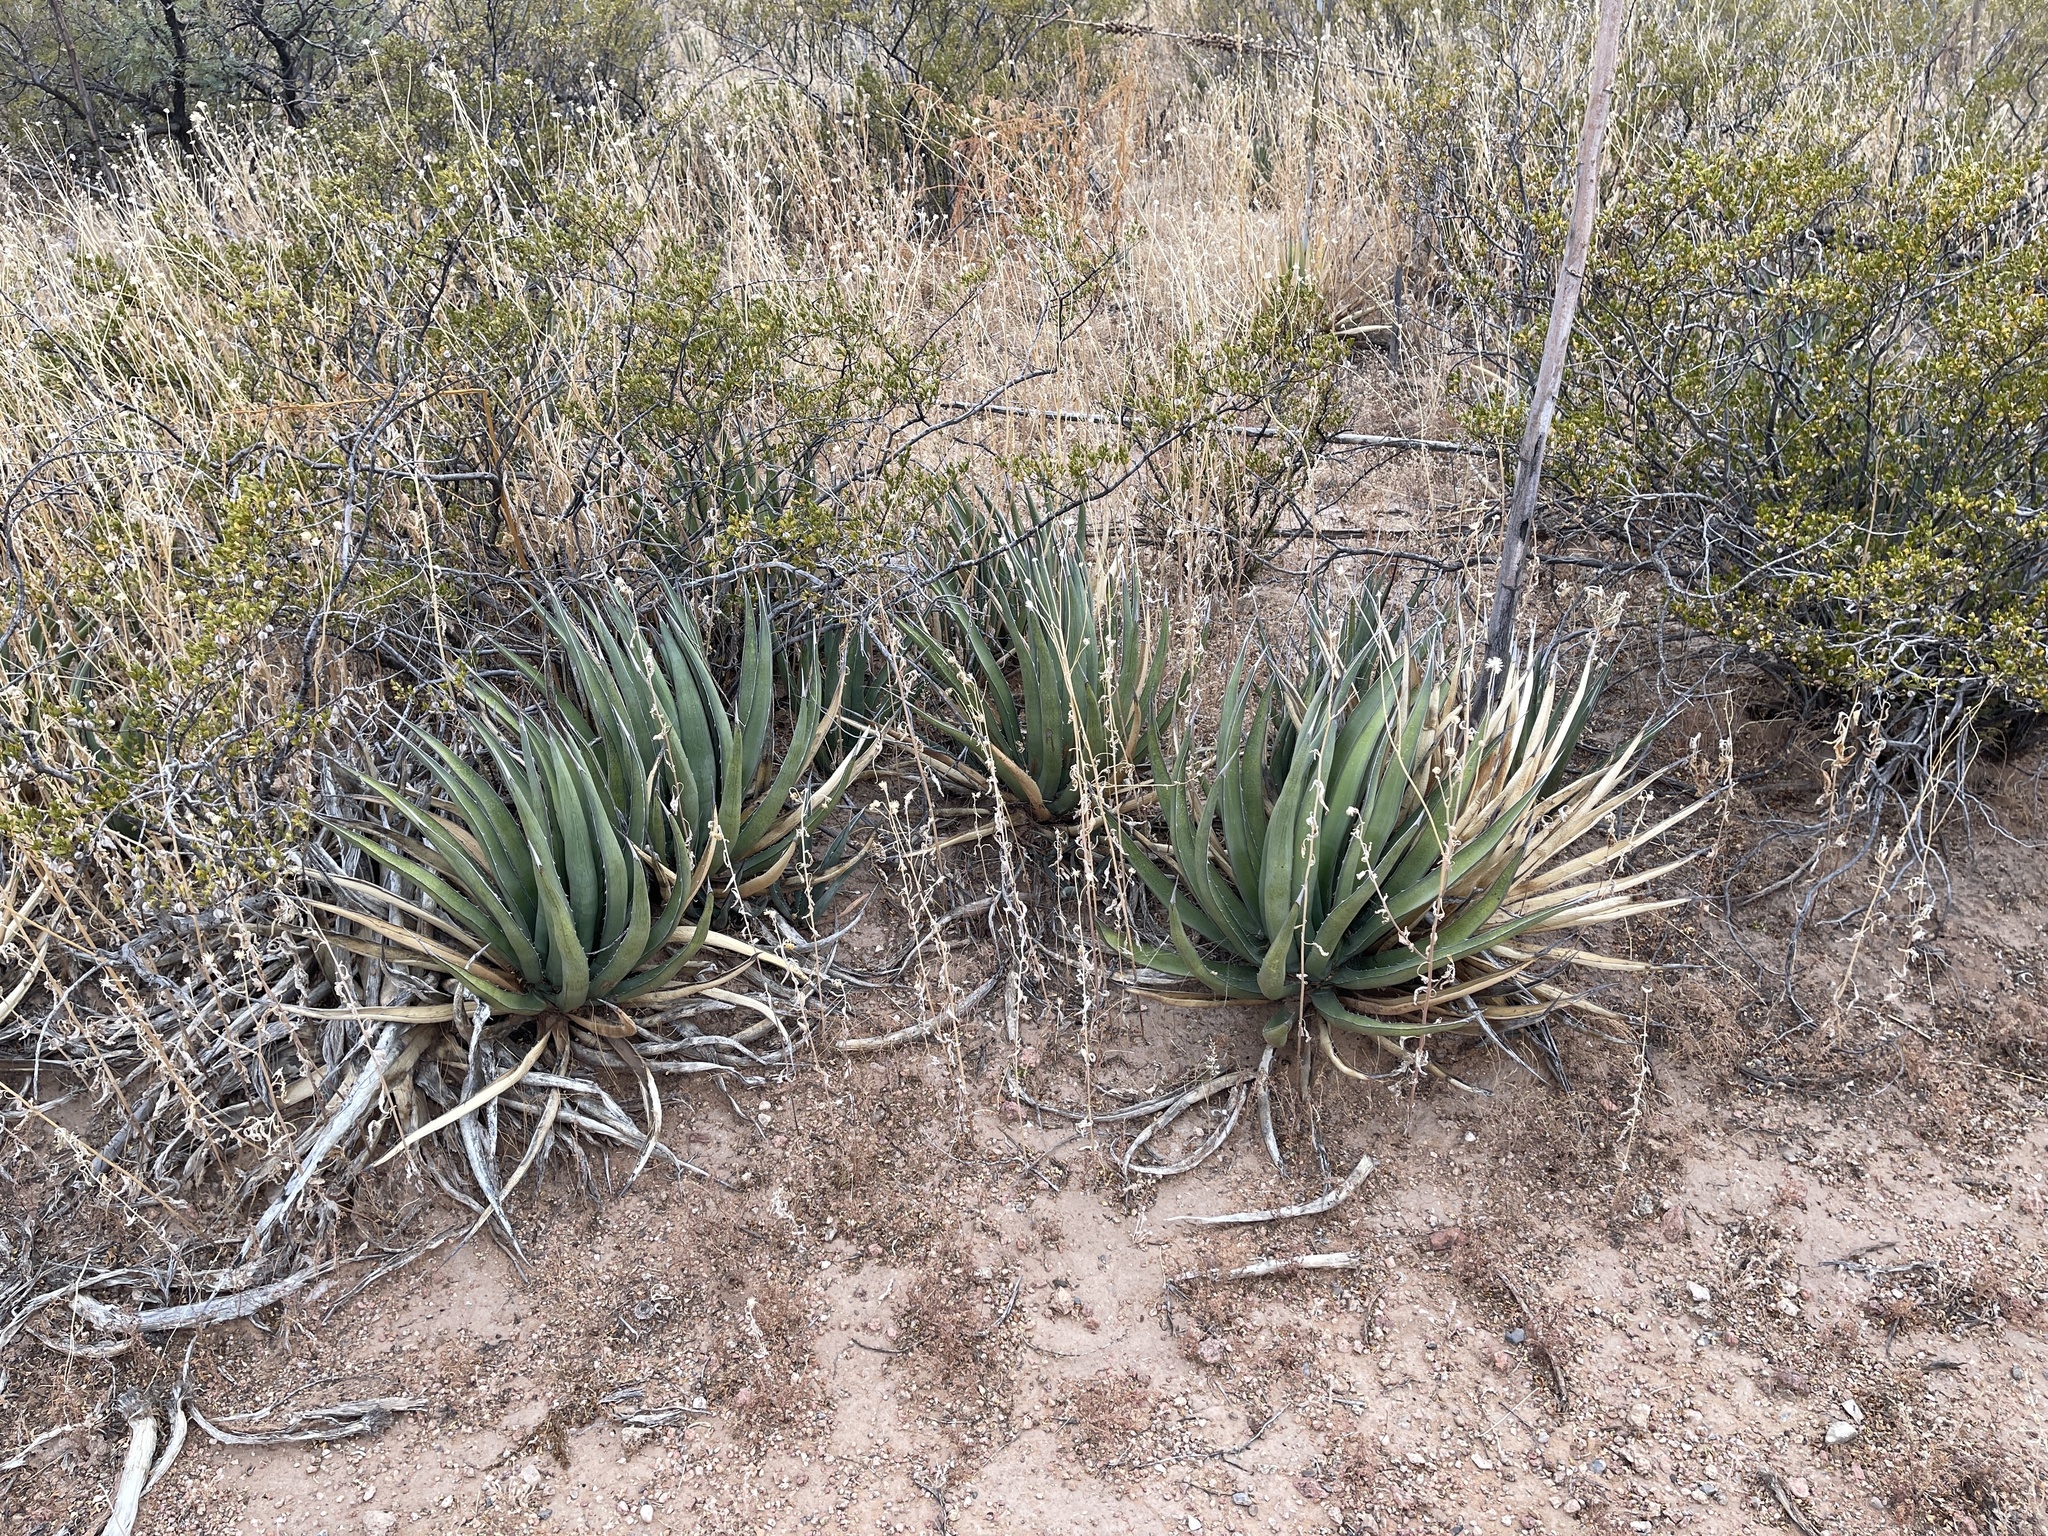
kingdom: Plantae
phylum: Tracheophyta
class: Liliopsida
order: Asparagales
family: Asparagaceae
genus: Agave
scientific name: Agave lechuguilla
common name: Lecheguilla agave
